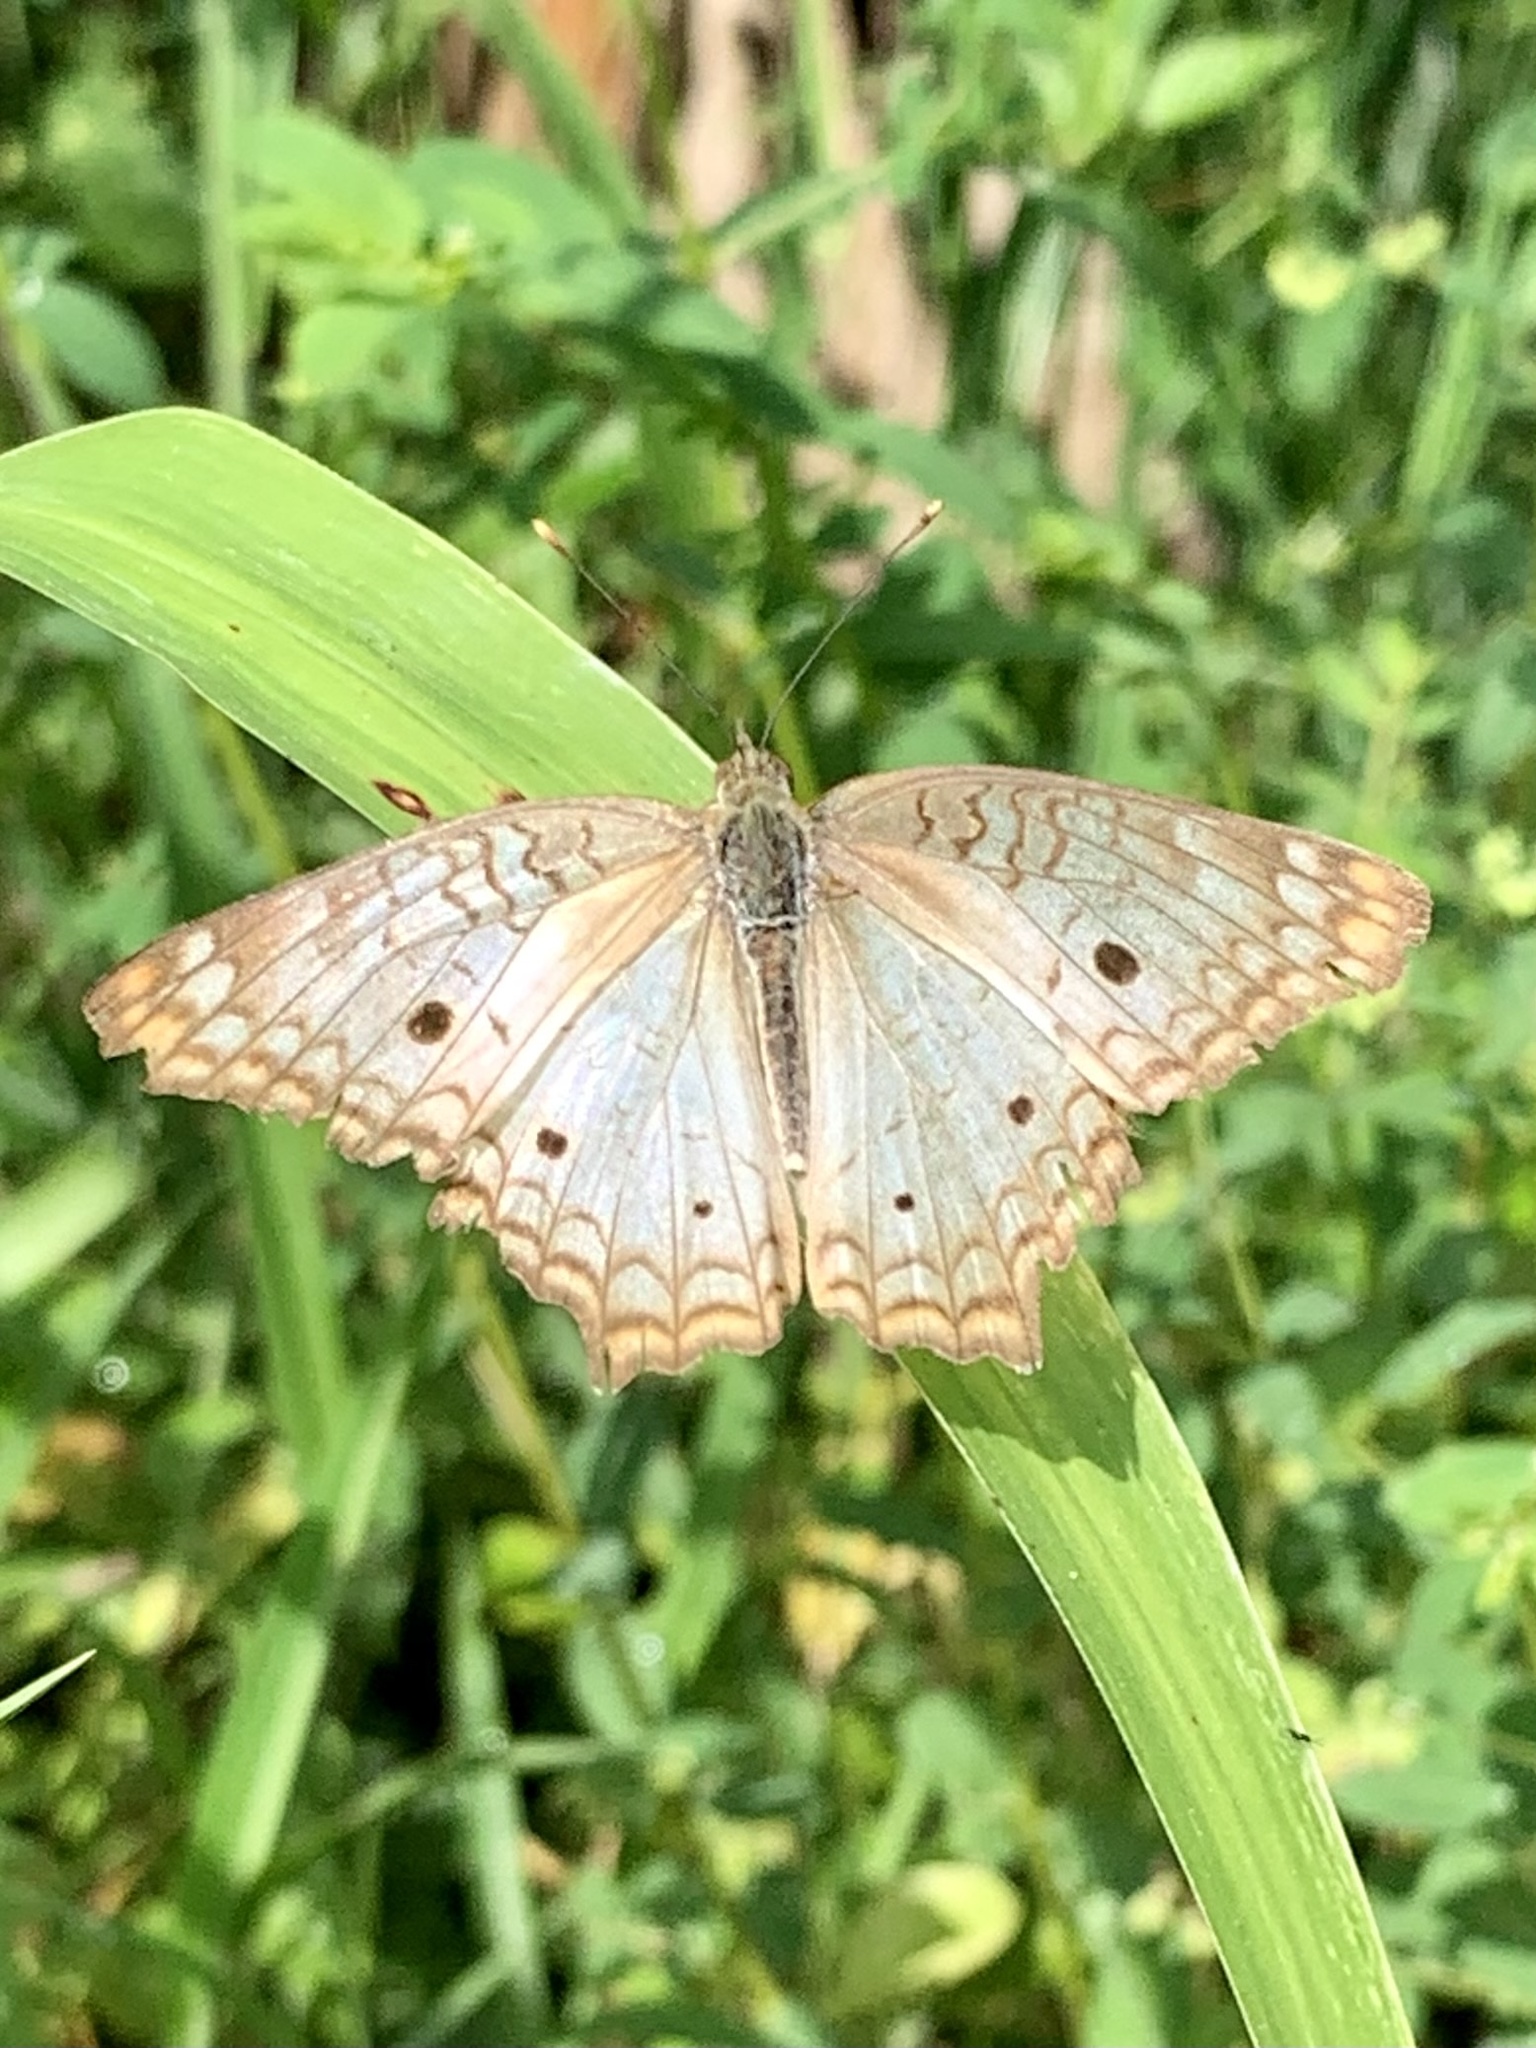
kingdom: Animalia
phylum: Arthropoda
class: Insecta
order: Lepidoptera
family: Nymphalidae
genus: Anartia
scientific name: Anartia jatrophae
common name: White peacock
